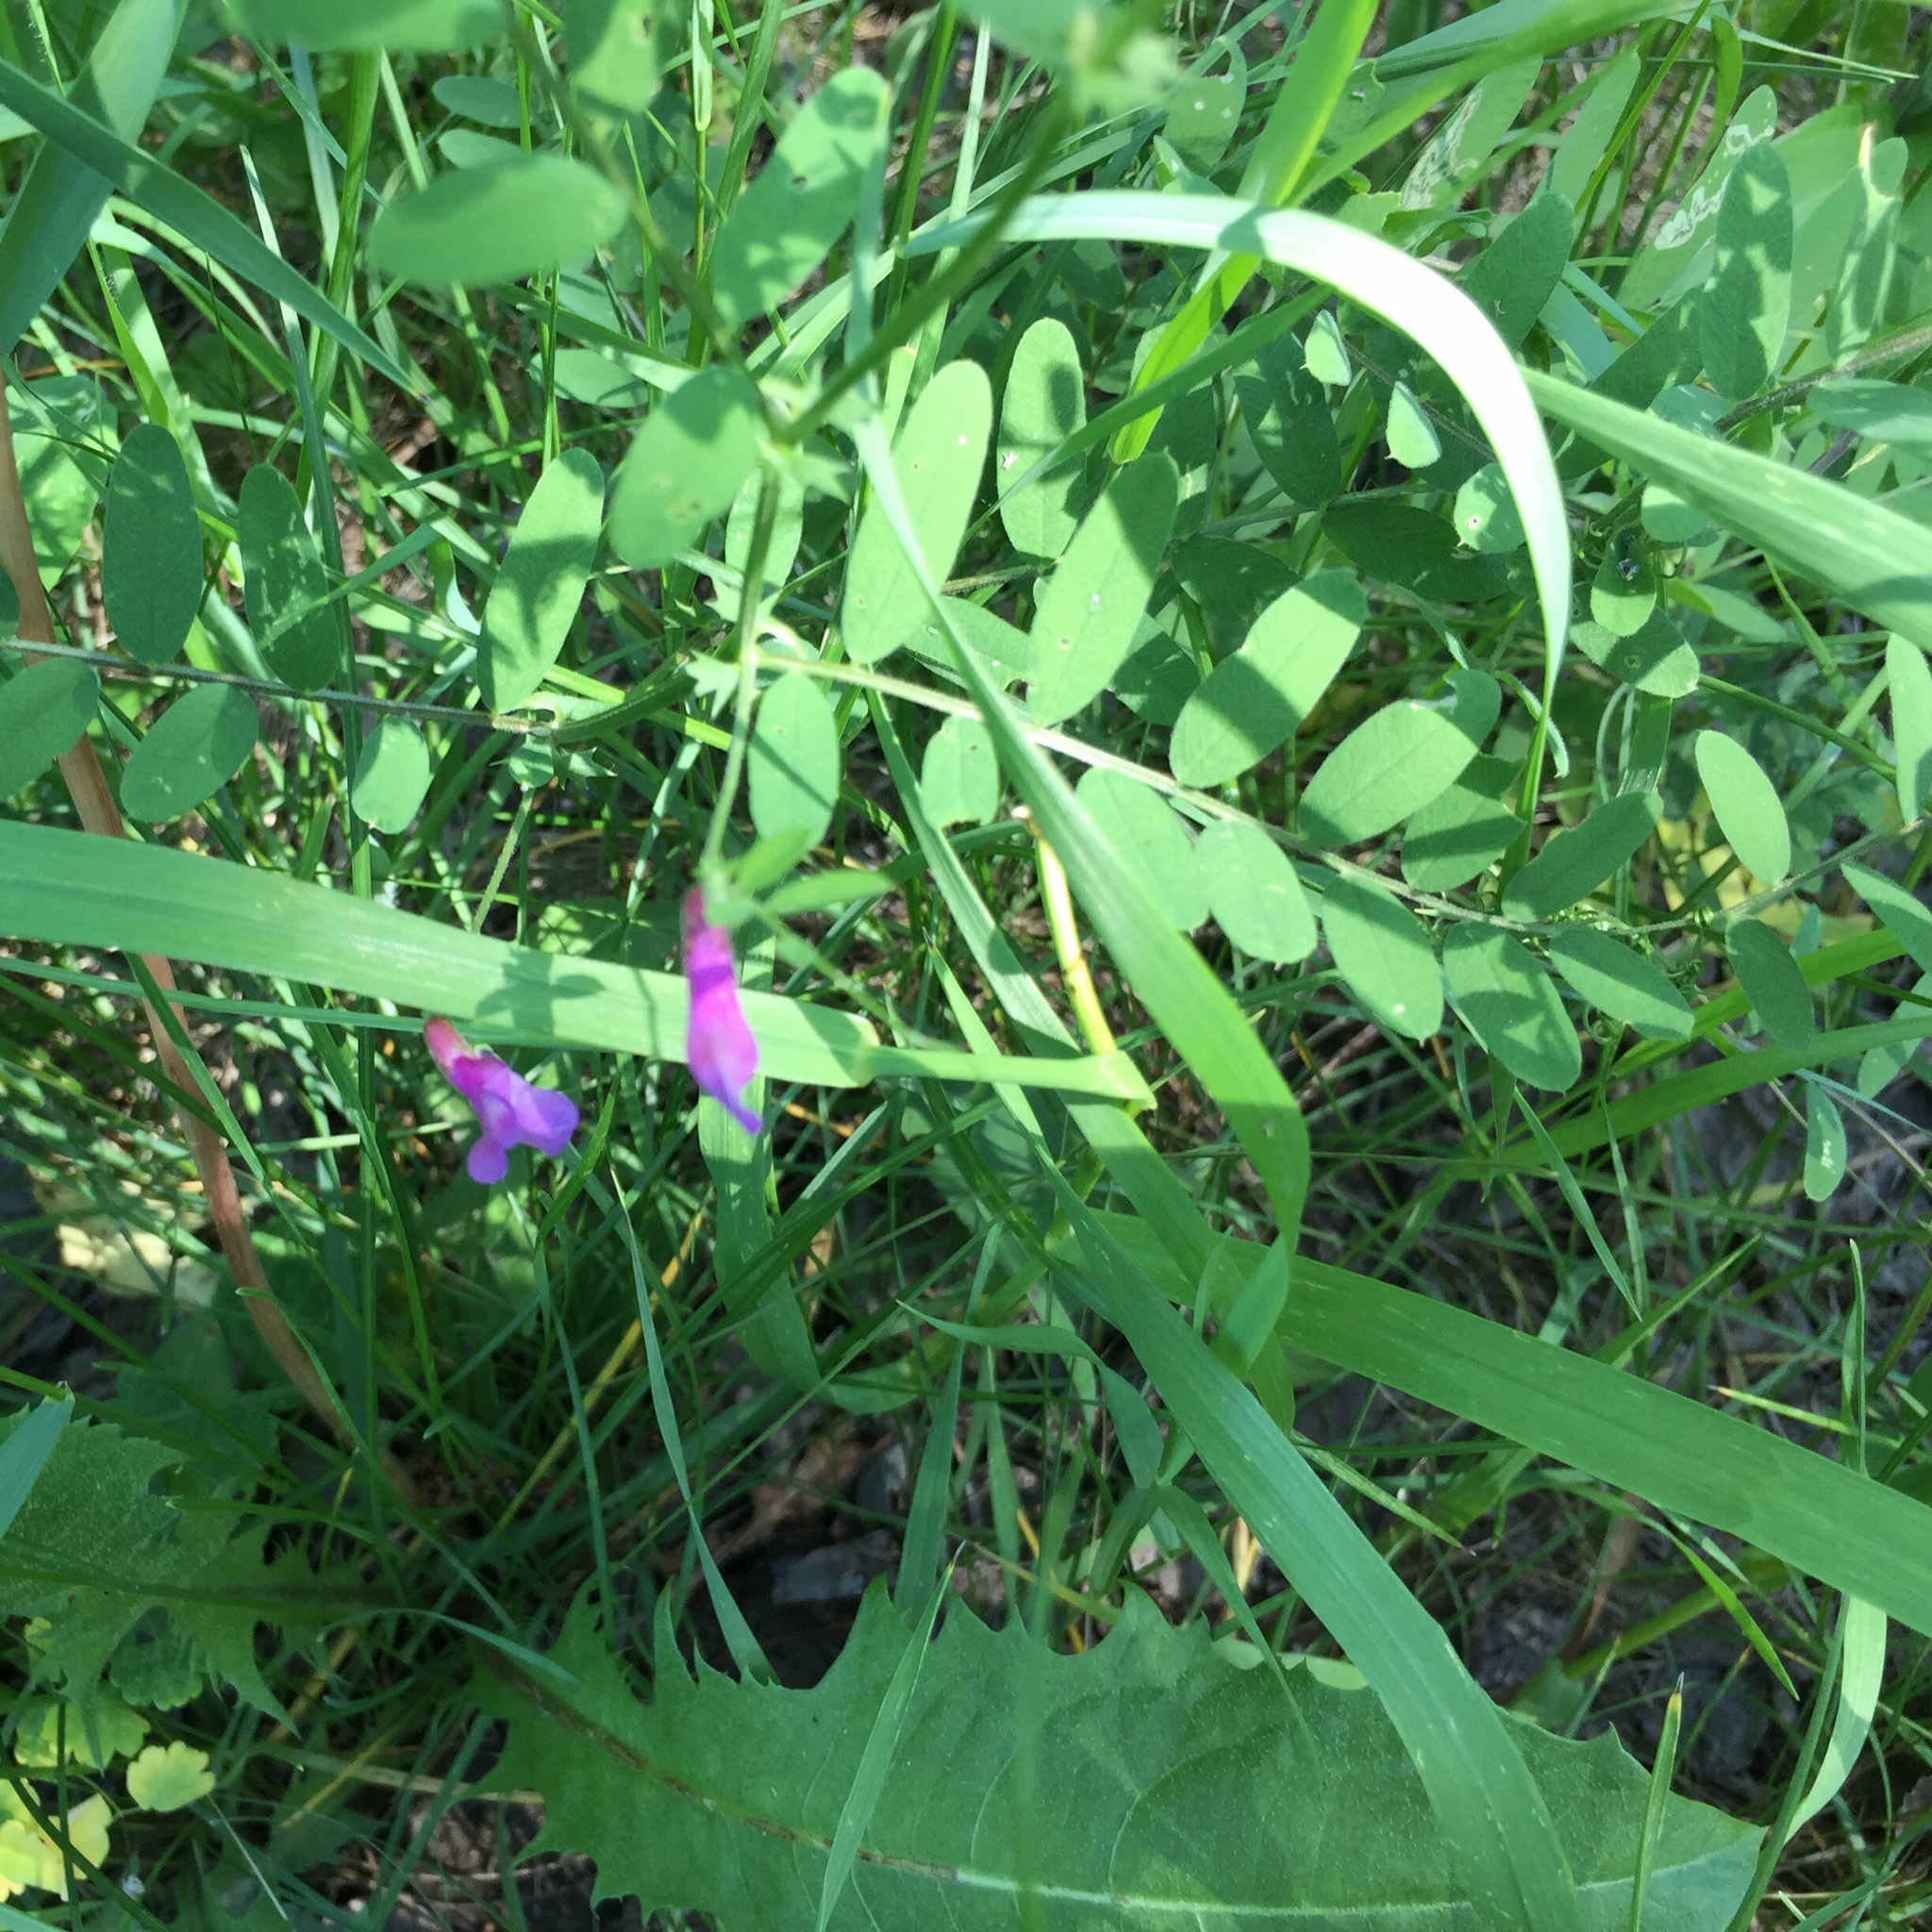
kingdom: Plantae
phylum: Tracheophyta
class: Magnoliopsida
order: Fabales
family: Fabaceae
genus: Vicia
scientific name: Vicia americana
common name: American vetch
